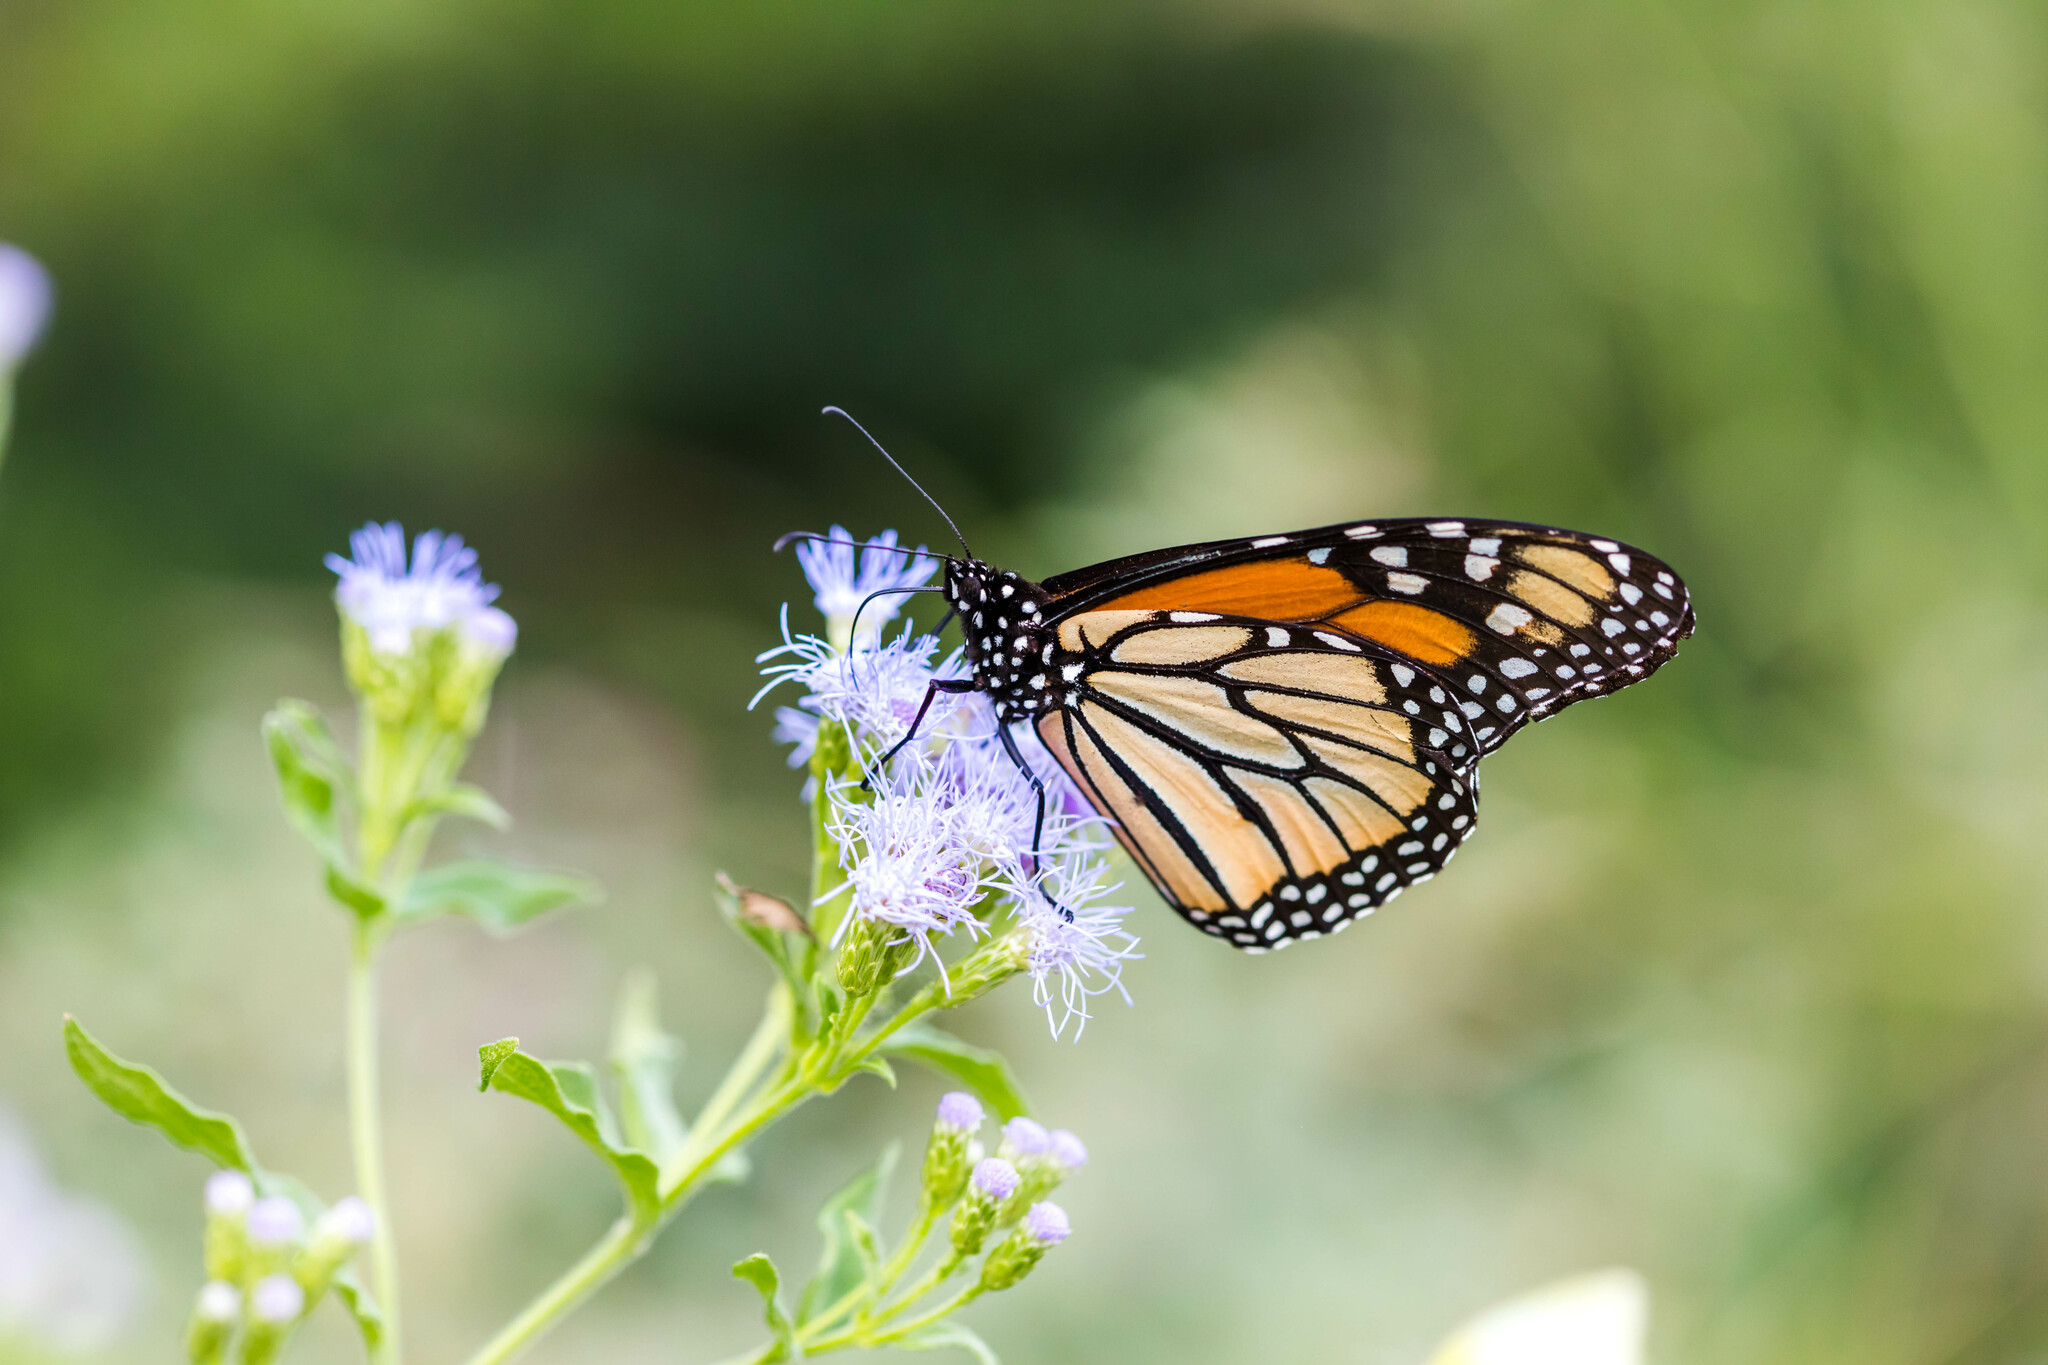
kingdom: Animalia
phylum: Arthropoda
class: Insecta
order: Lepidoptera
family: Nymphalidae
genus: Danaus
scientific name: Danaus plexippus
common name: Monarch
